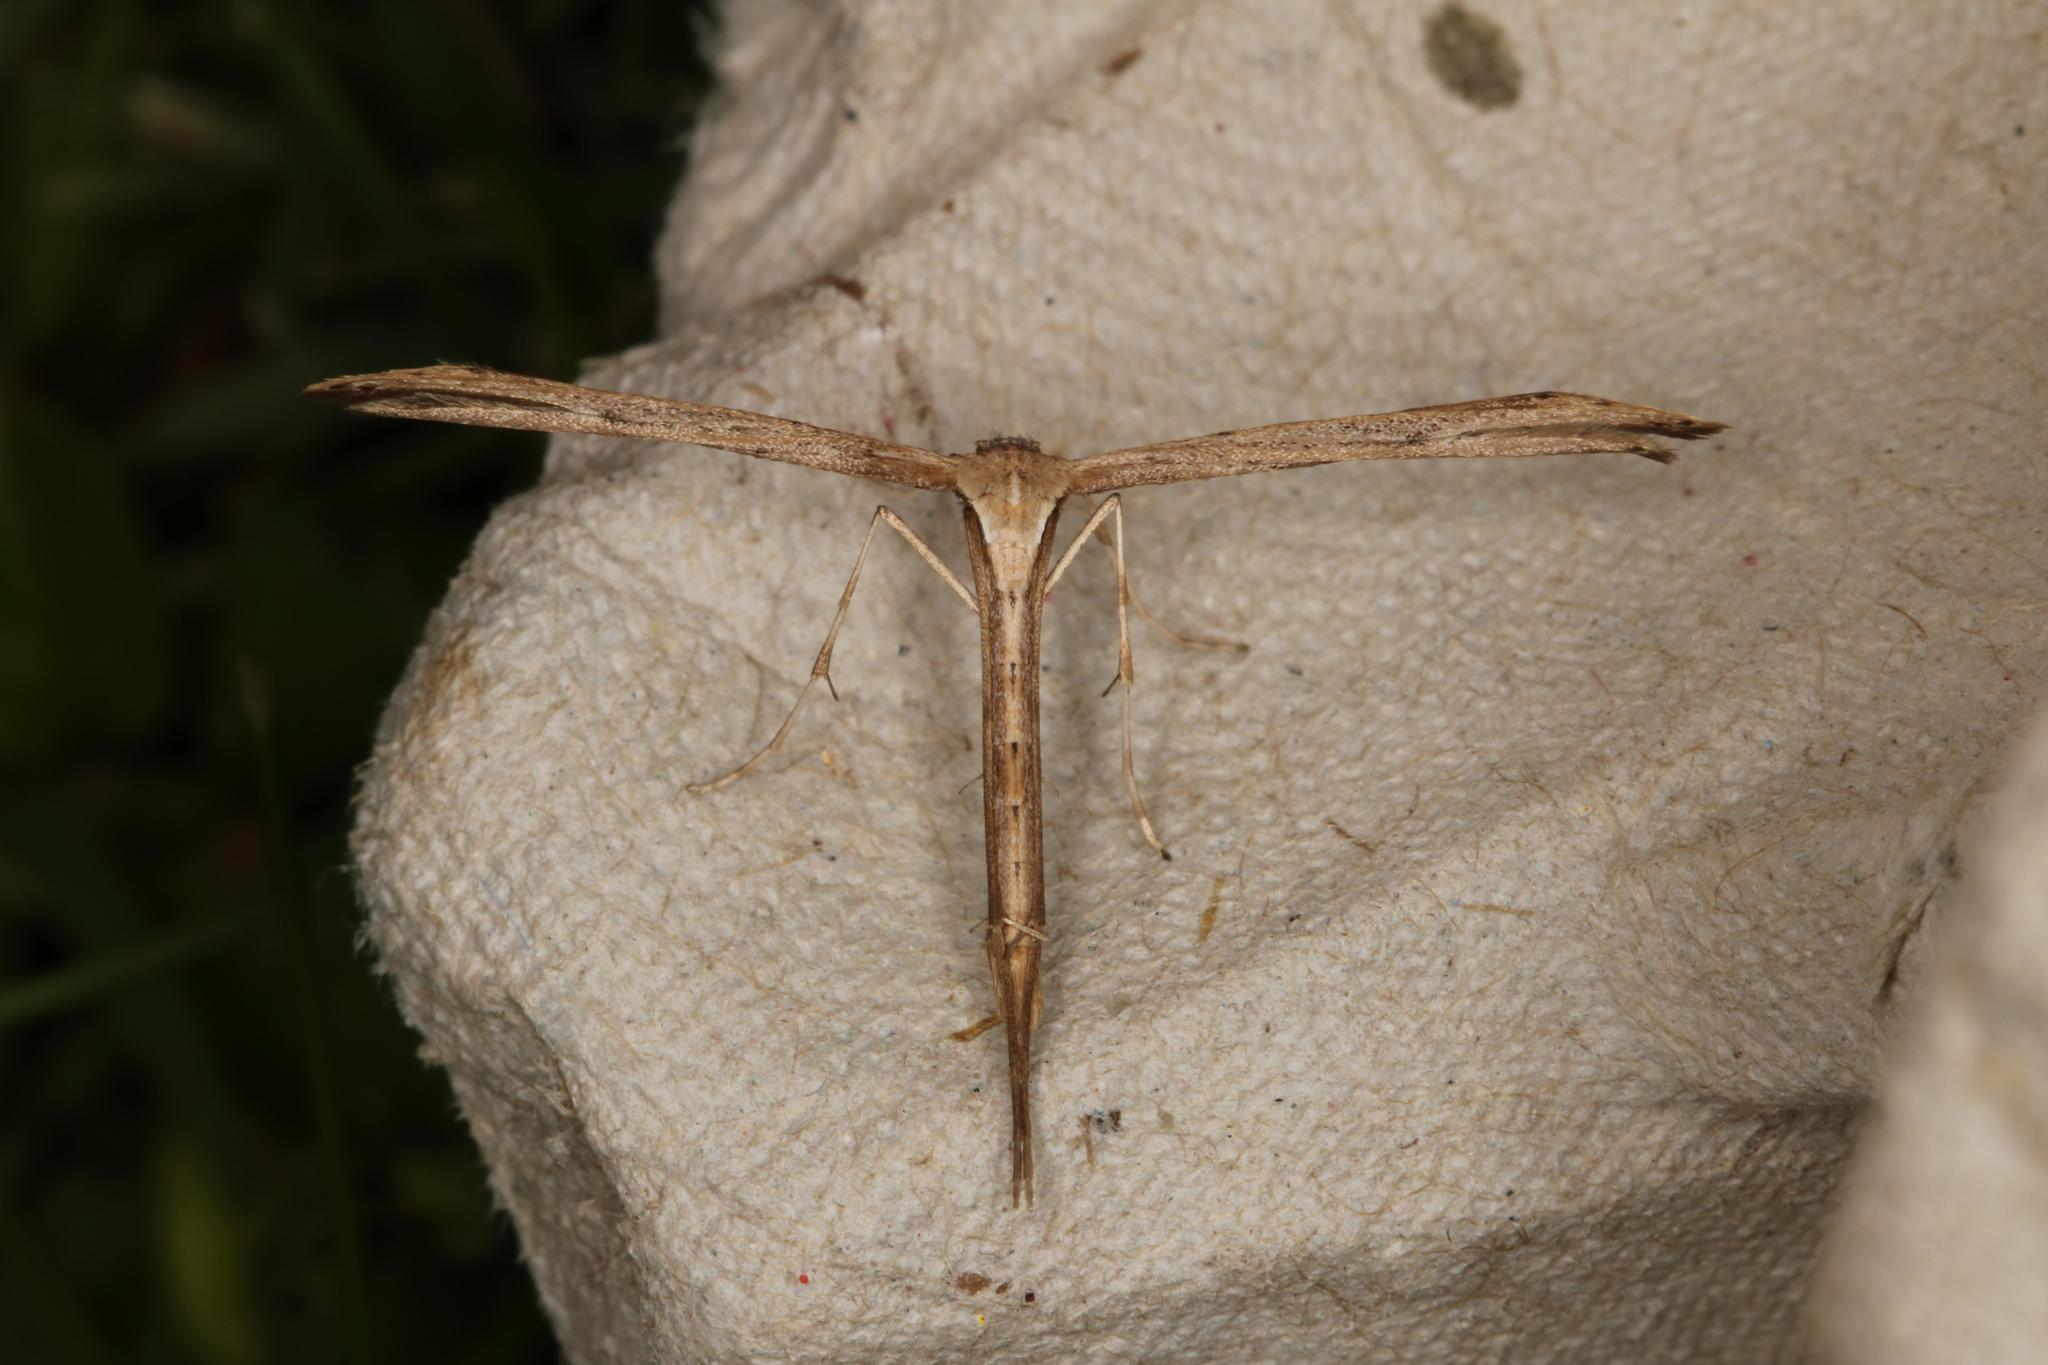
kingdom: Animalia
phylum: Arthropoda
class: Insecta
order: Lepidoptera
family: Pterophoridae
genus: Emmelina
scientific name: Emmelina monodactyla
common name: Common plume
